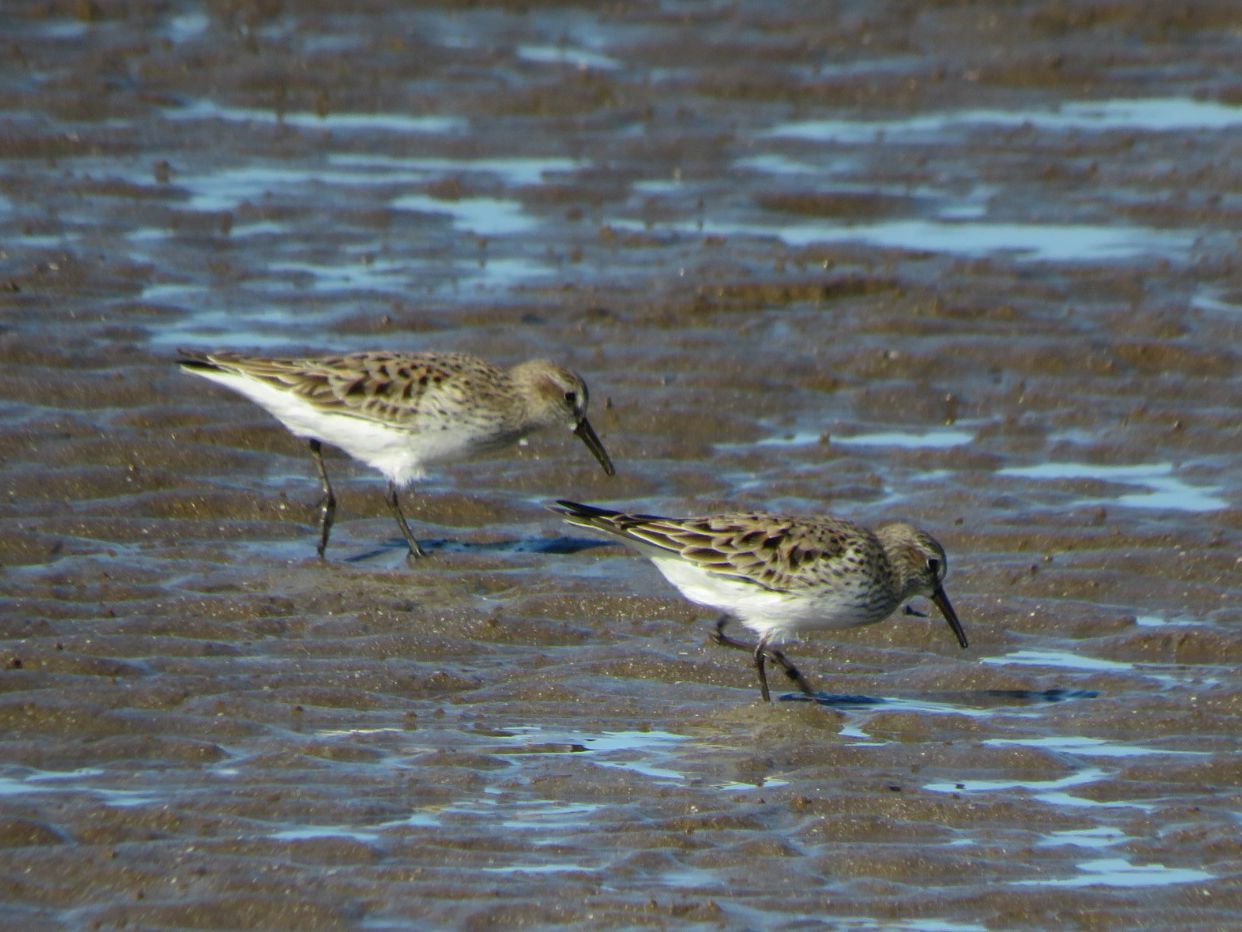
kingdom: Animalia
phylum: Chordata
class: Aves
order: Charadriiformes
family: Scolopacidae
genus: Calidris
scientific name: Calidris fuscicollis
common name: White-rumped sandpiper
